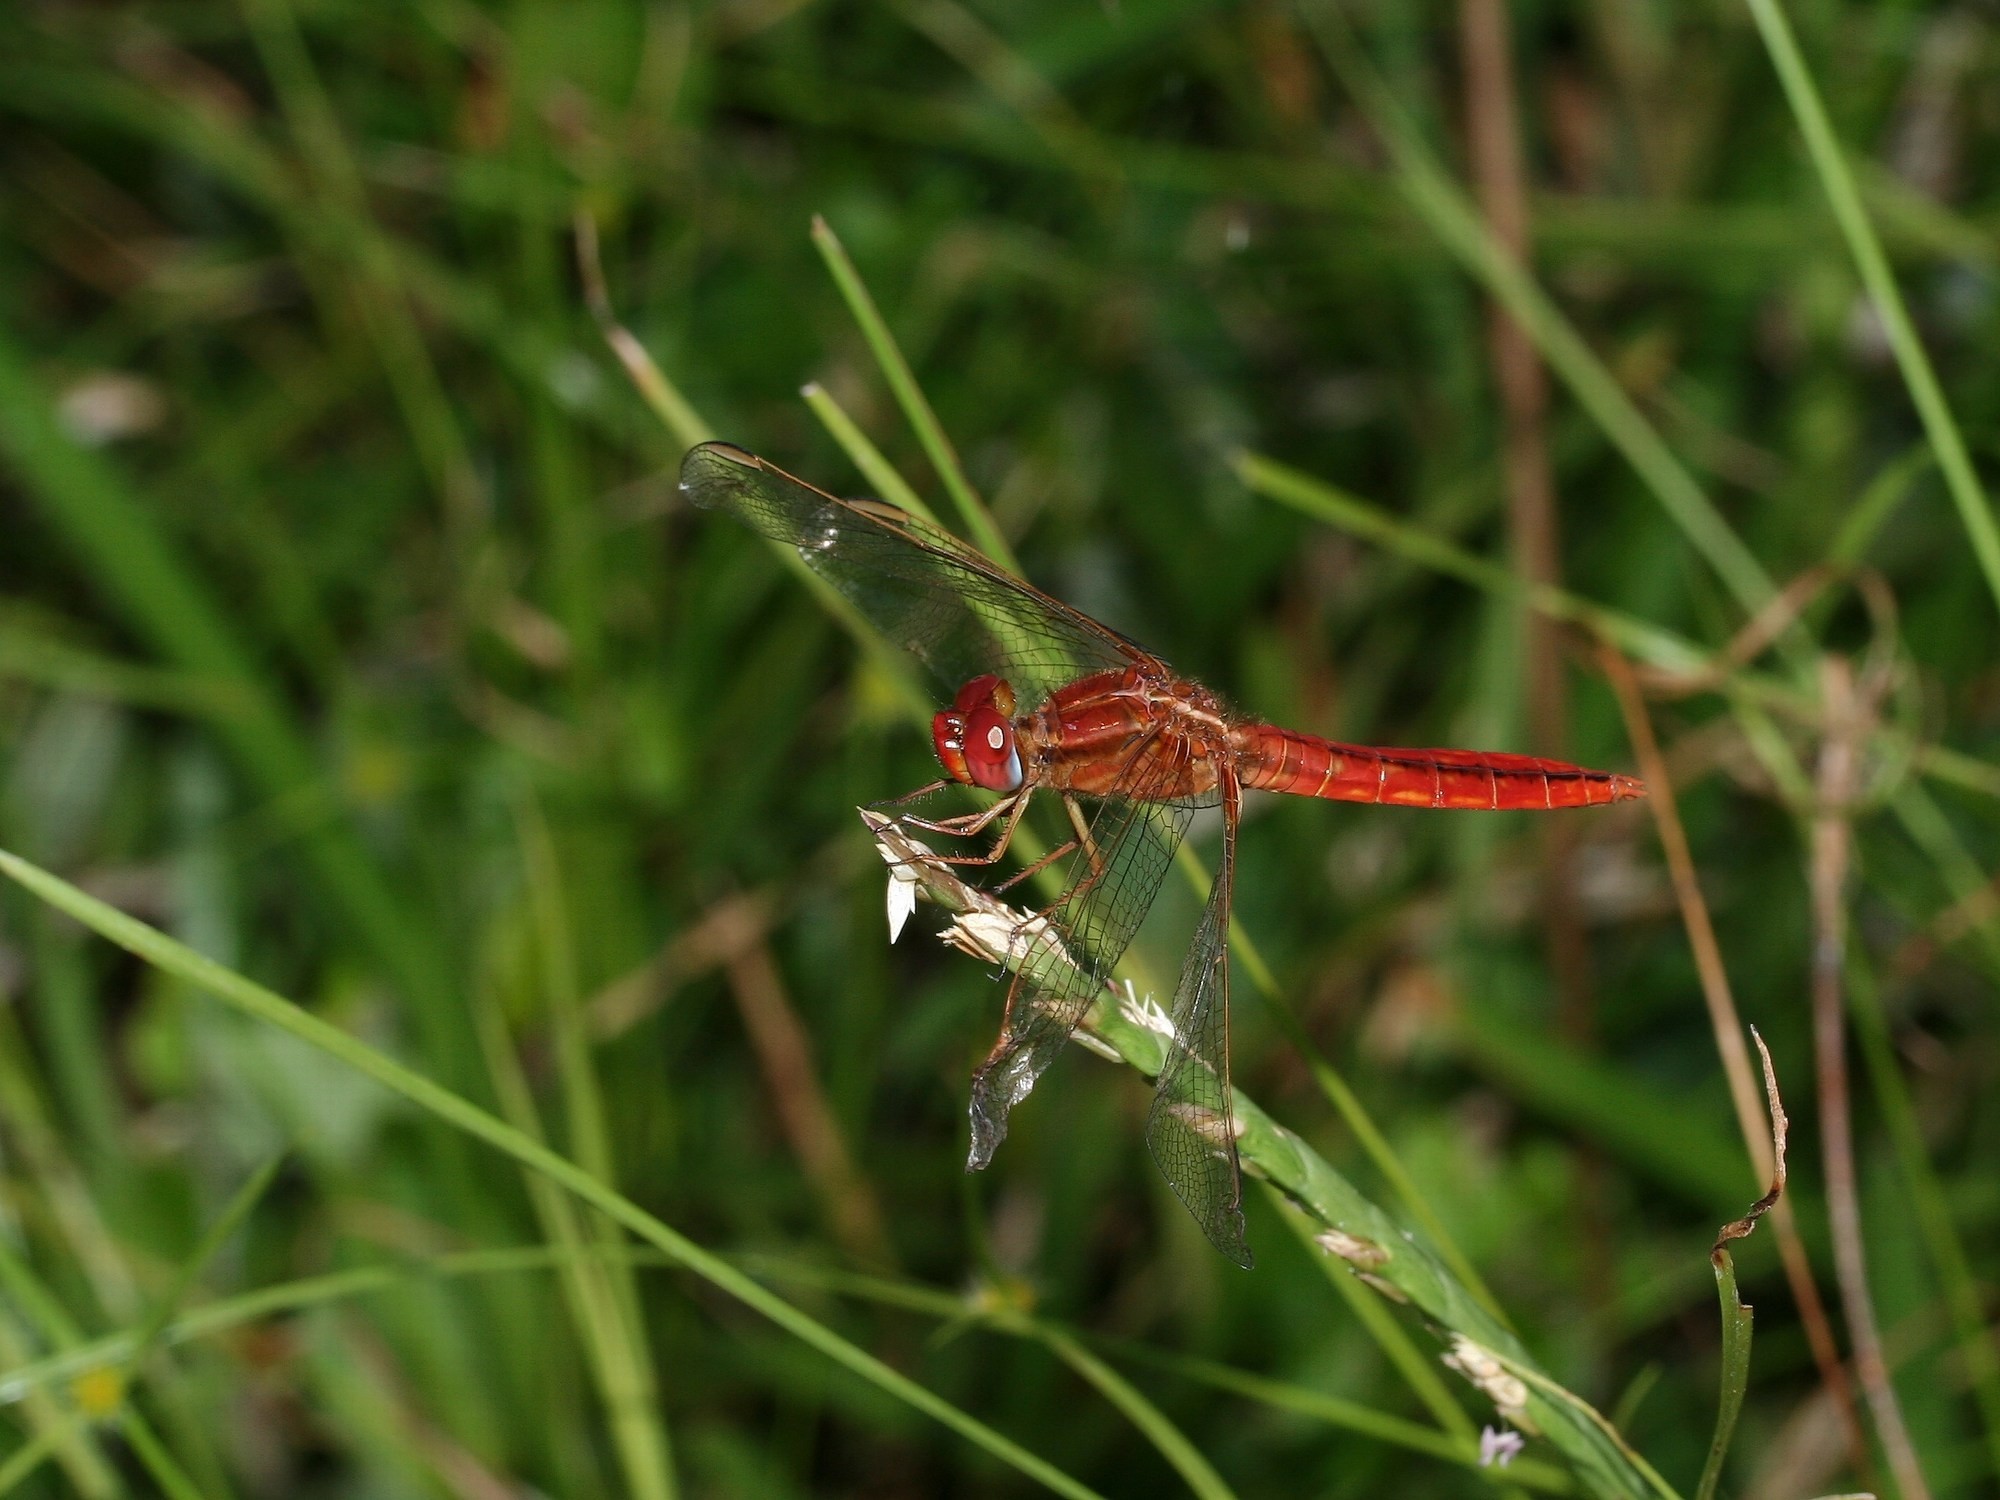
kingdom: Animalia
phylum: Arthropoda
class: Insecta
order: Odonata
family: Libellulidae
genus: Crocothemis
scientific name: Crocothemis erythraea
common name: Scarlet dragonfly
